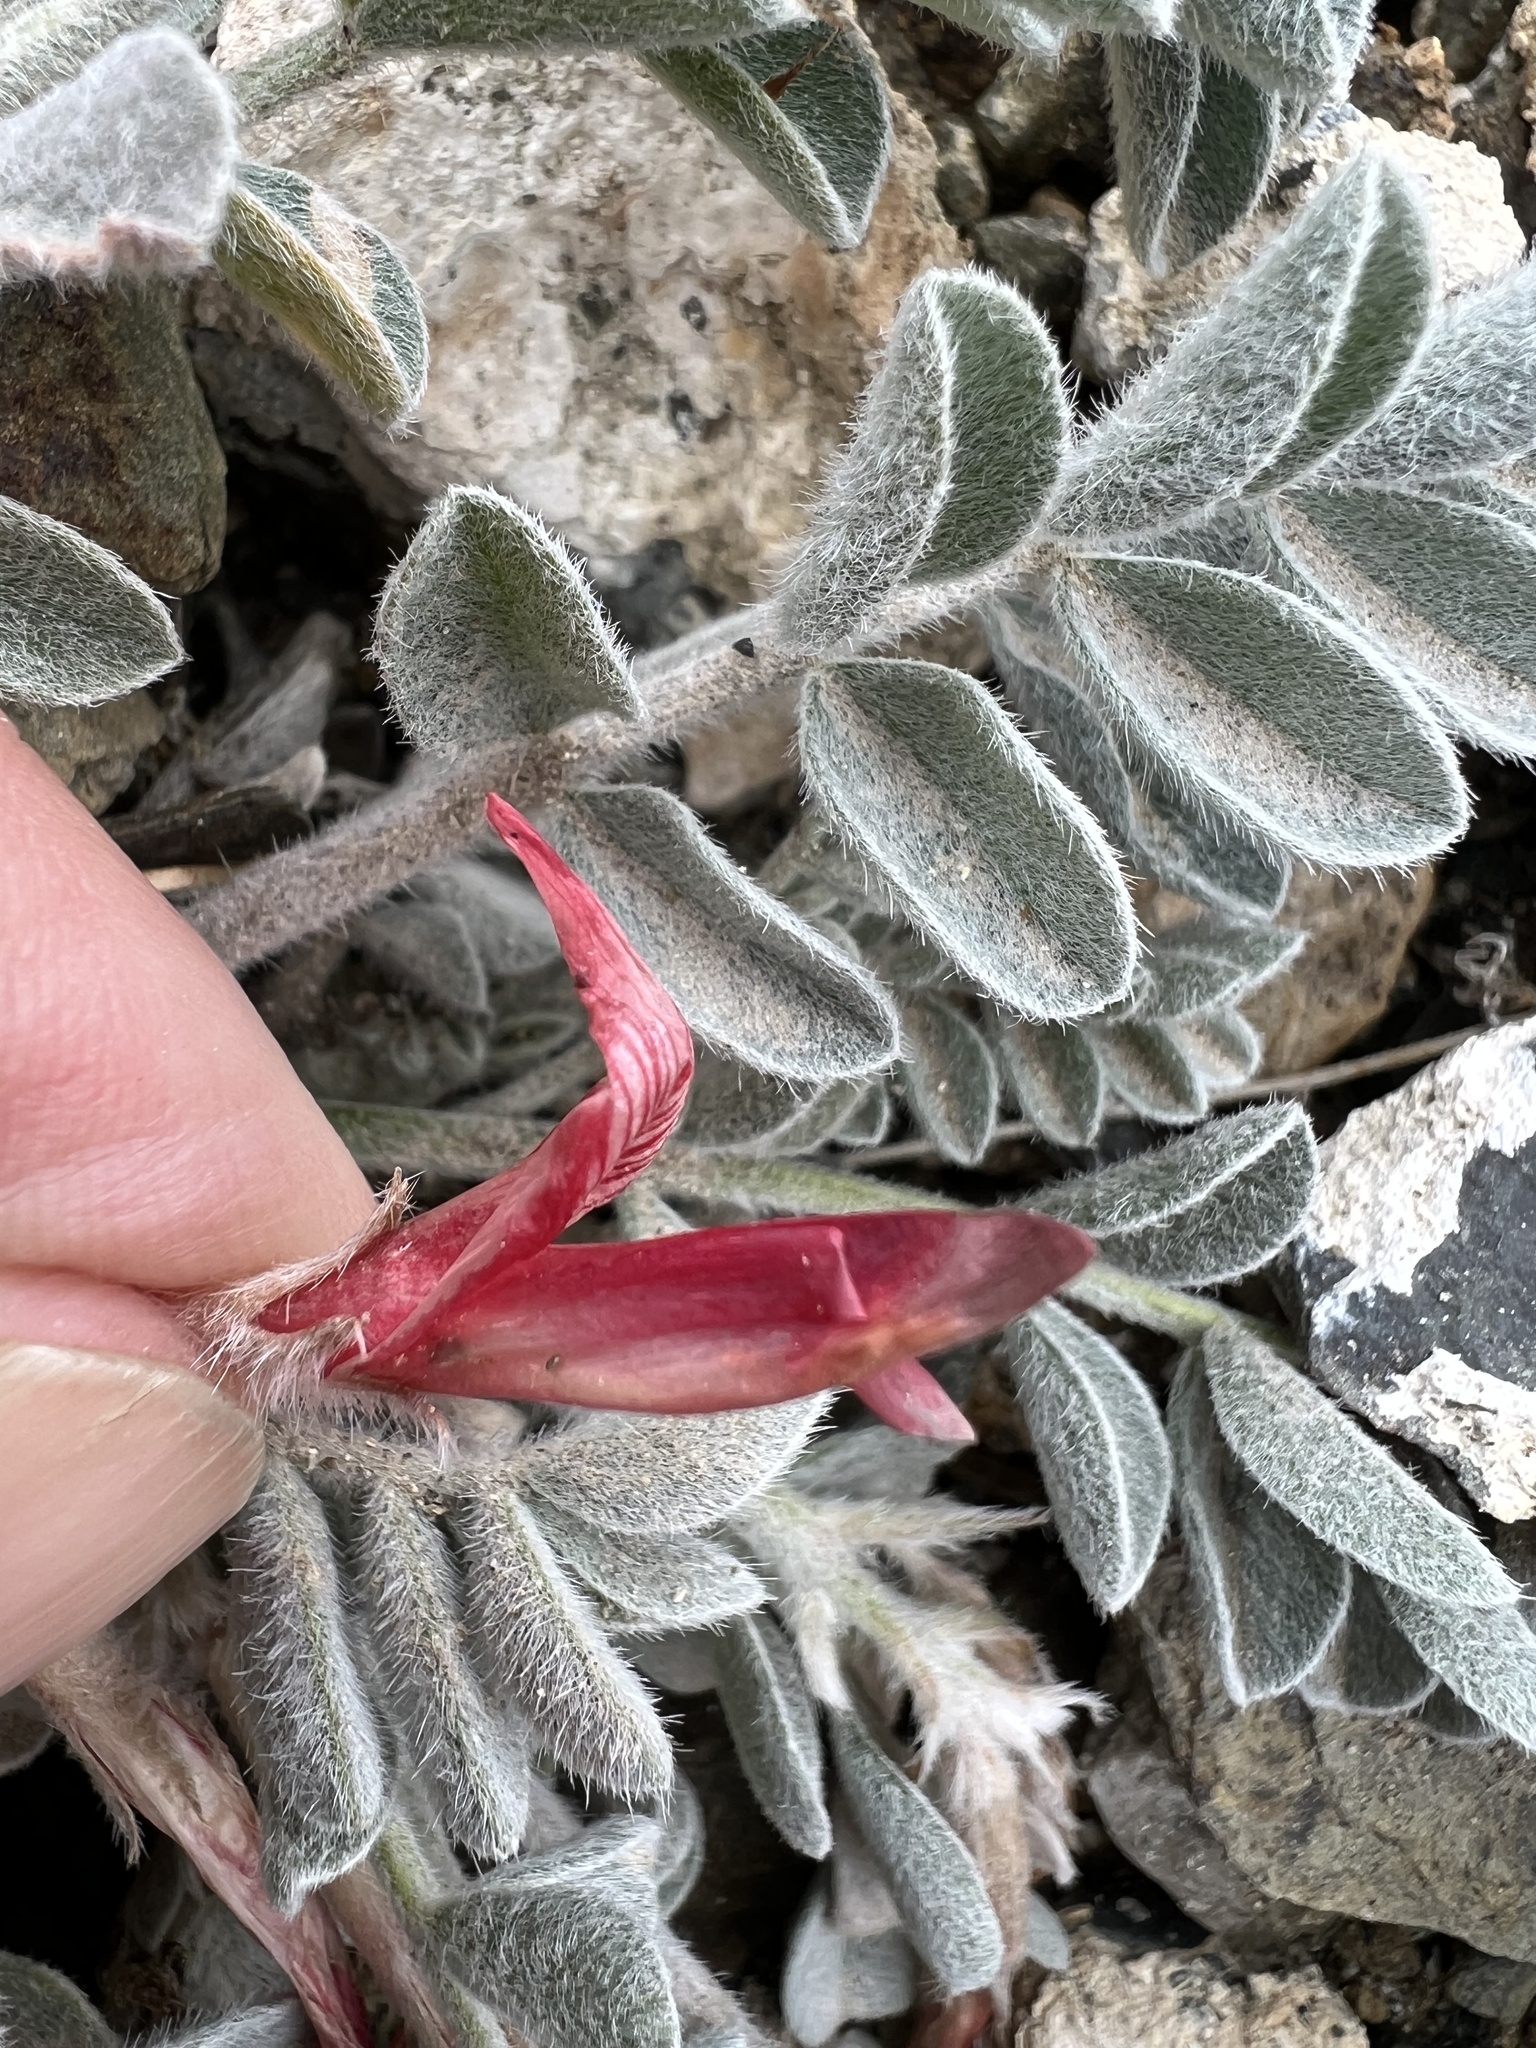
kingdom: Plantae
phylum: Tracheophyta
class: Magnoliopsida
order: Fabales
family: Fabaceae
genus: Astragalus
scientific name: Astragalus coccineus
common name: Scarlet milk-vetch
